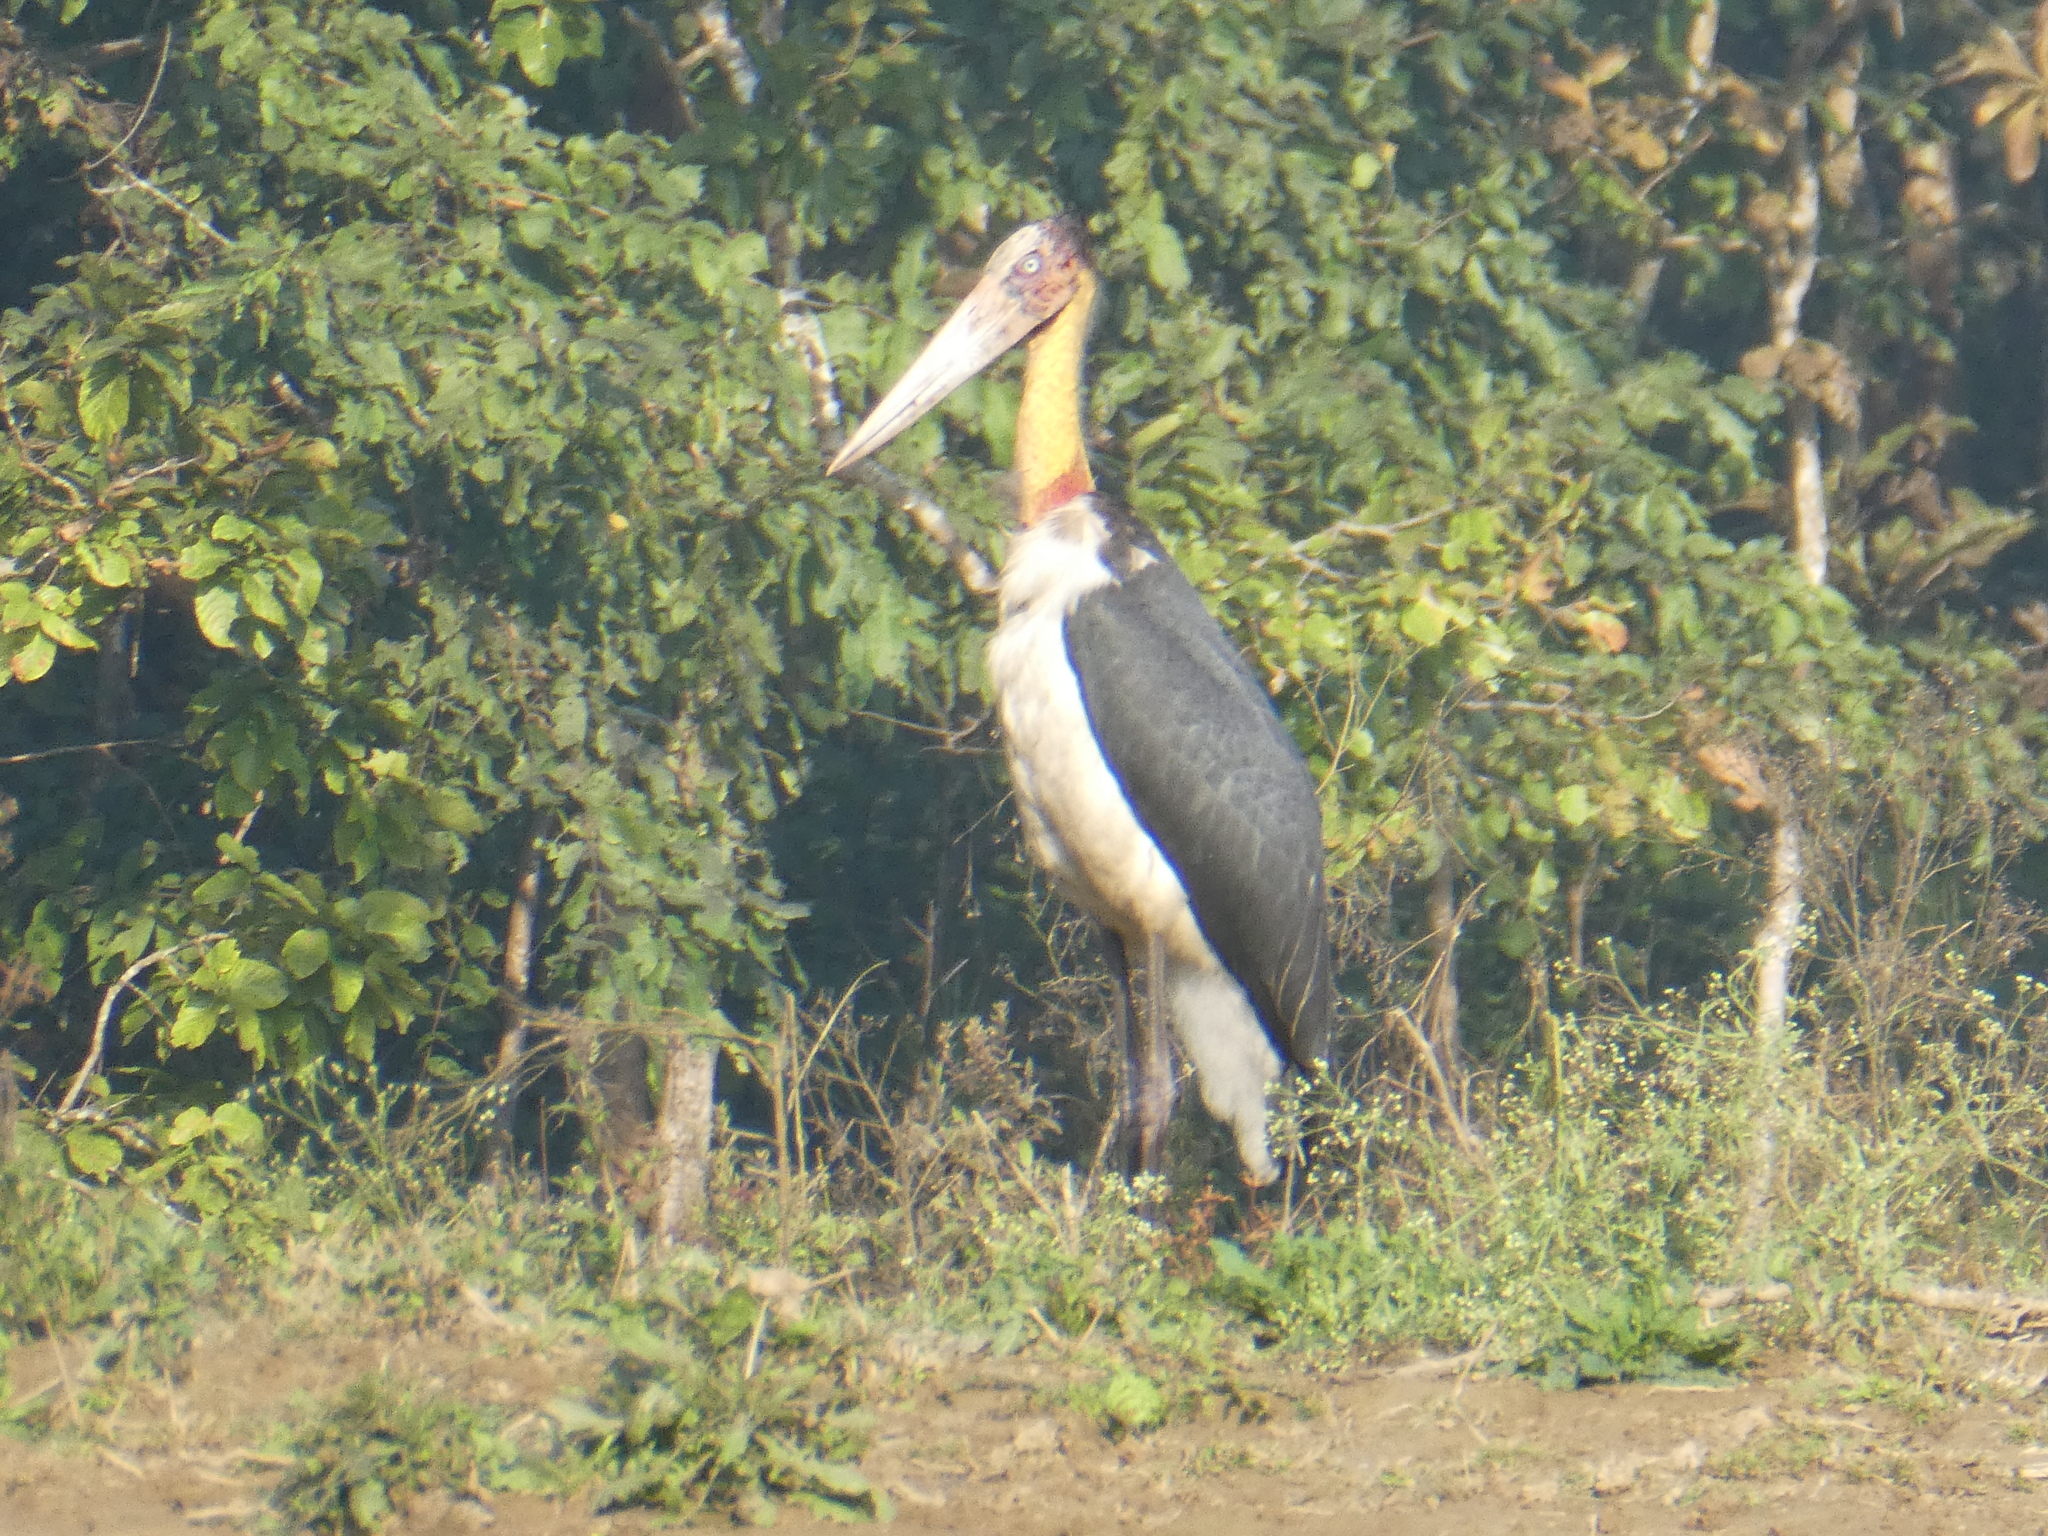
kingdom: Animalia
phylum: Chordata
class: Aves
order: Ciconiiformes
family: Ciconiidae
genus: Leptoptilos
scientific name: Leptoptilos javanicus
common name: Lesser adjutant
